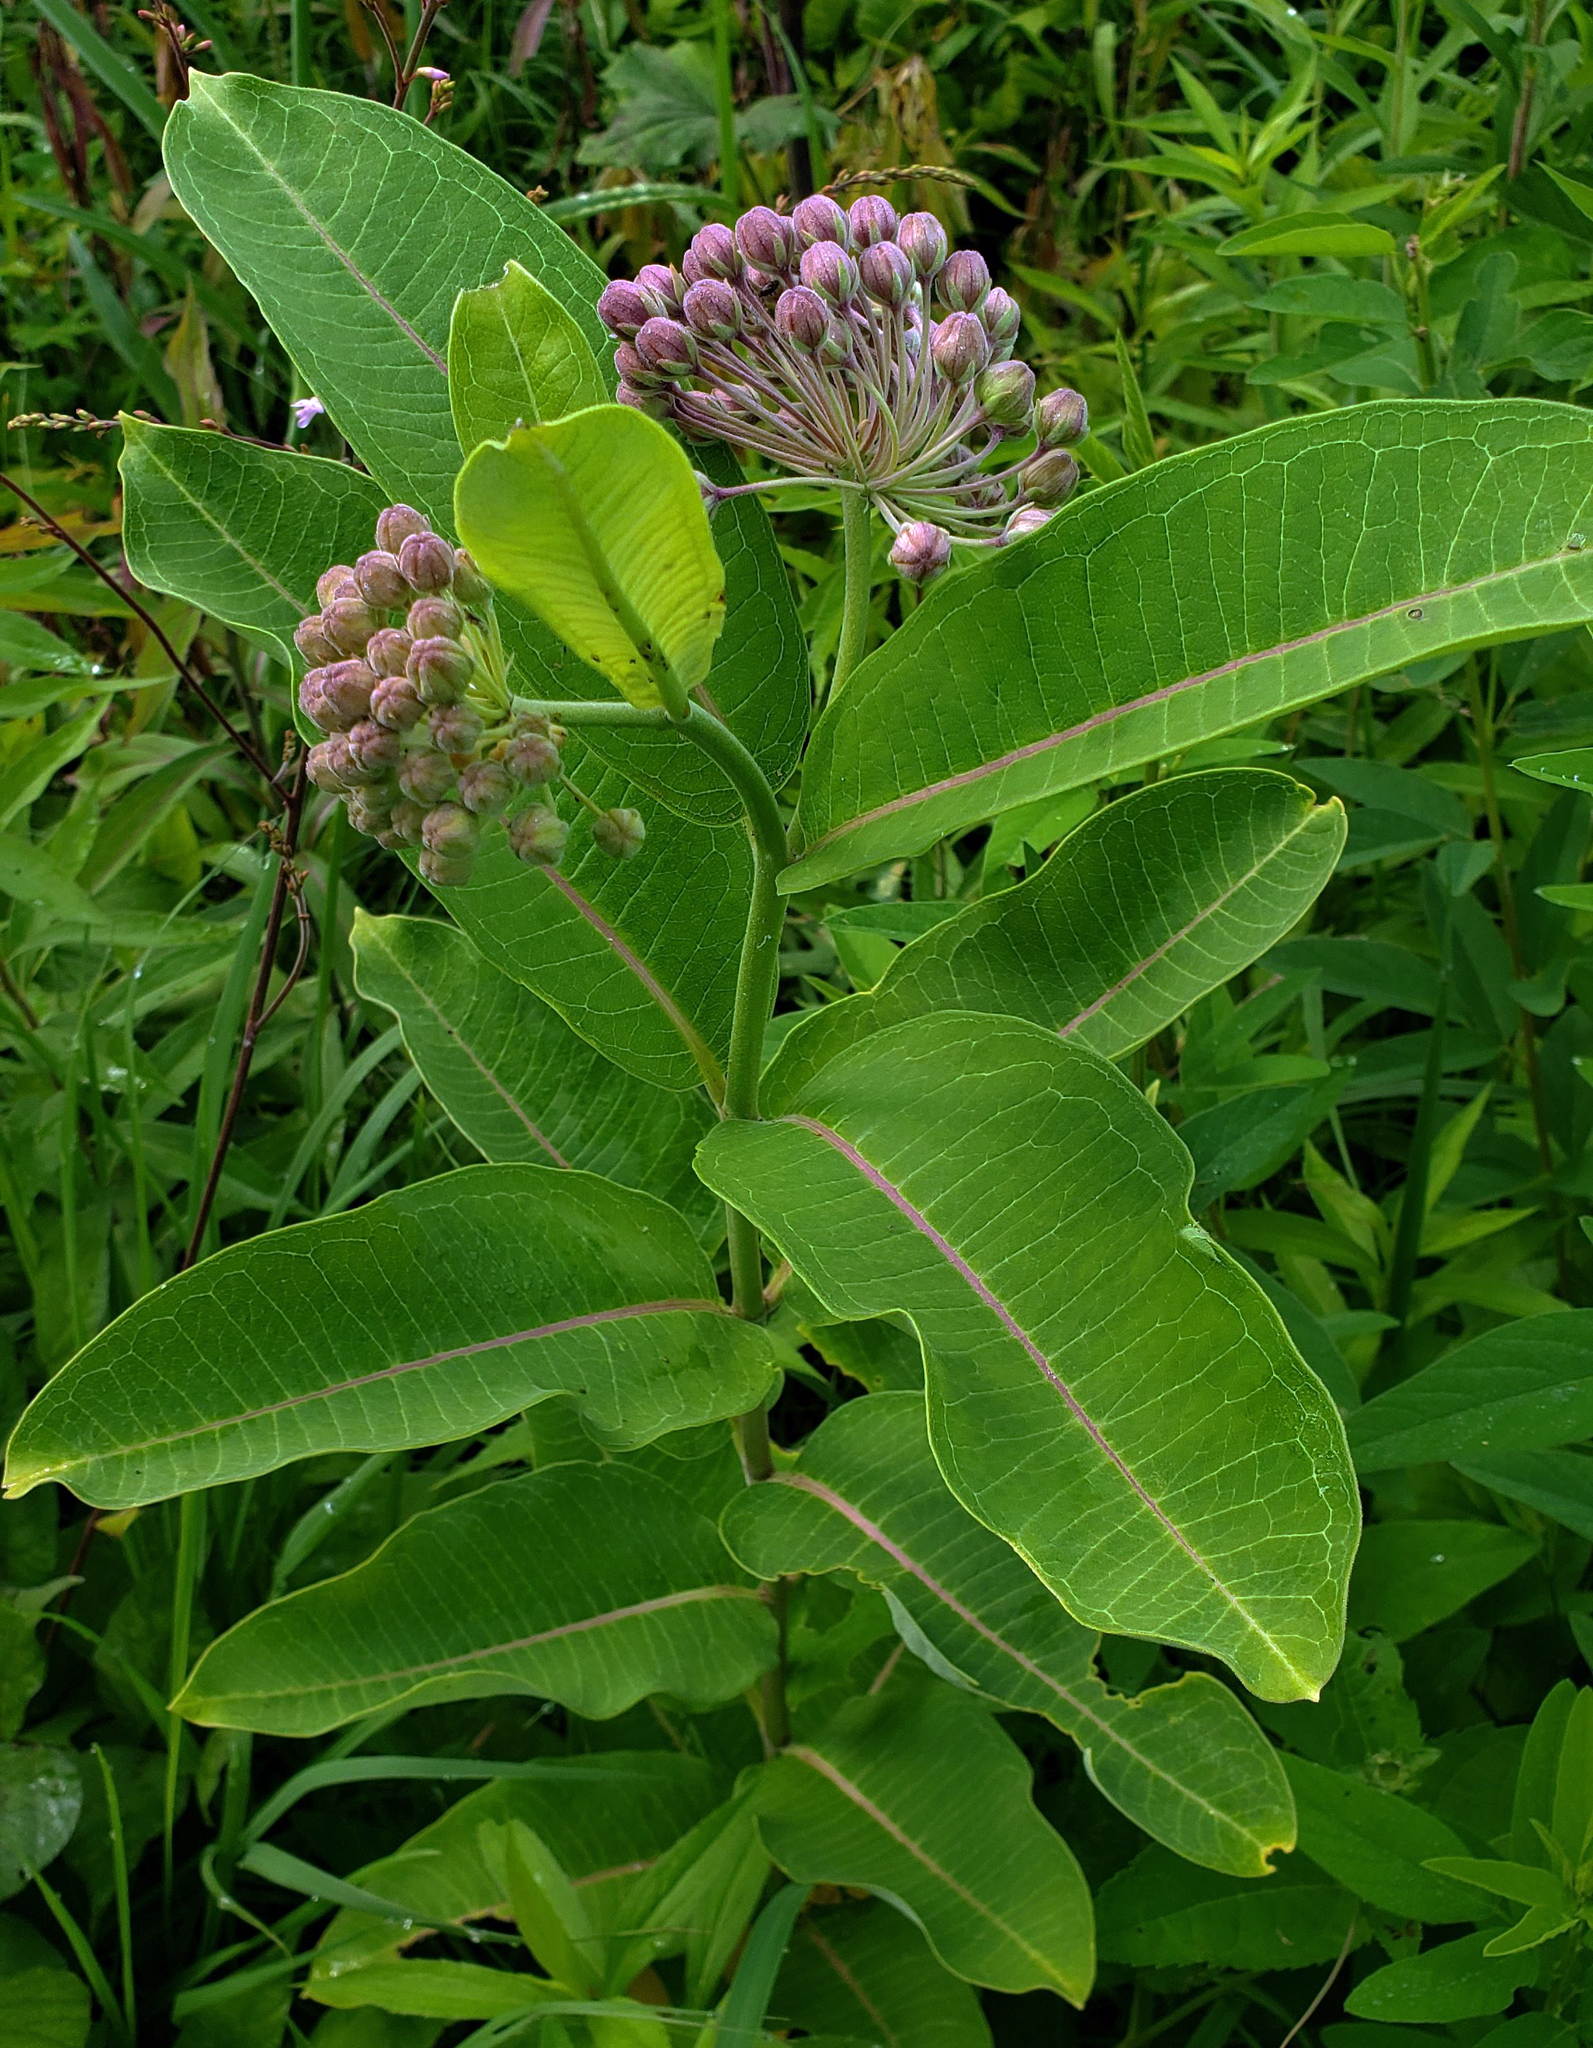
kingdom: Plantae
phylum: Tracheophyta
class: Magnoliopsida
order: Gentianales
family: Apocynaceae
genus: Asclepias
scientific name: Asclepias syriaca
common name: Common milkweed
